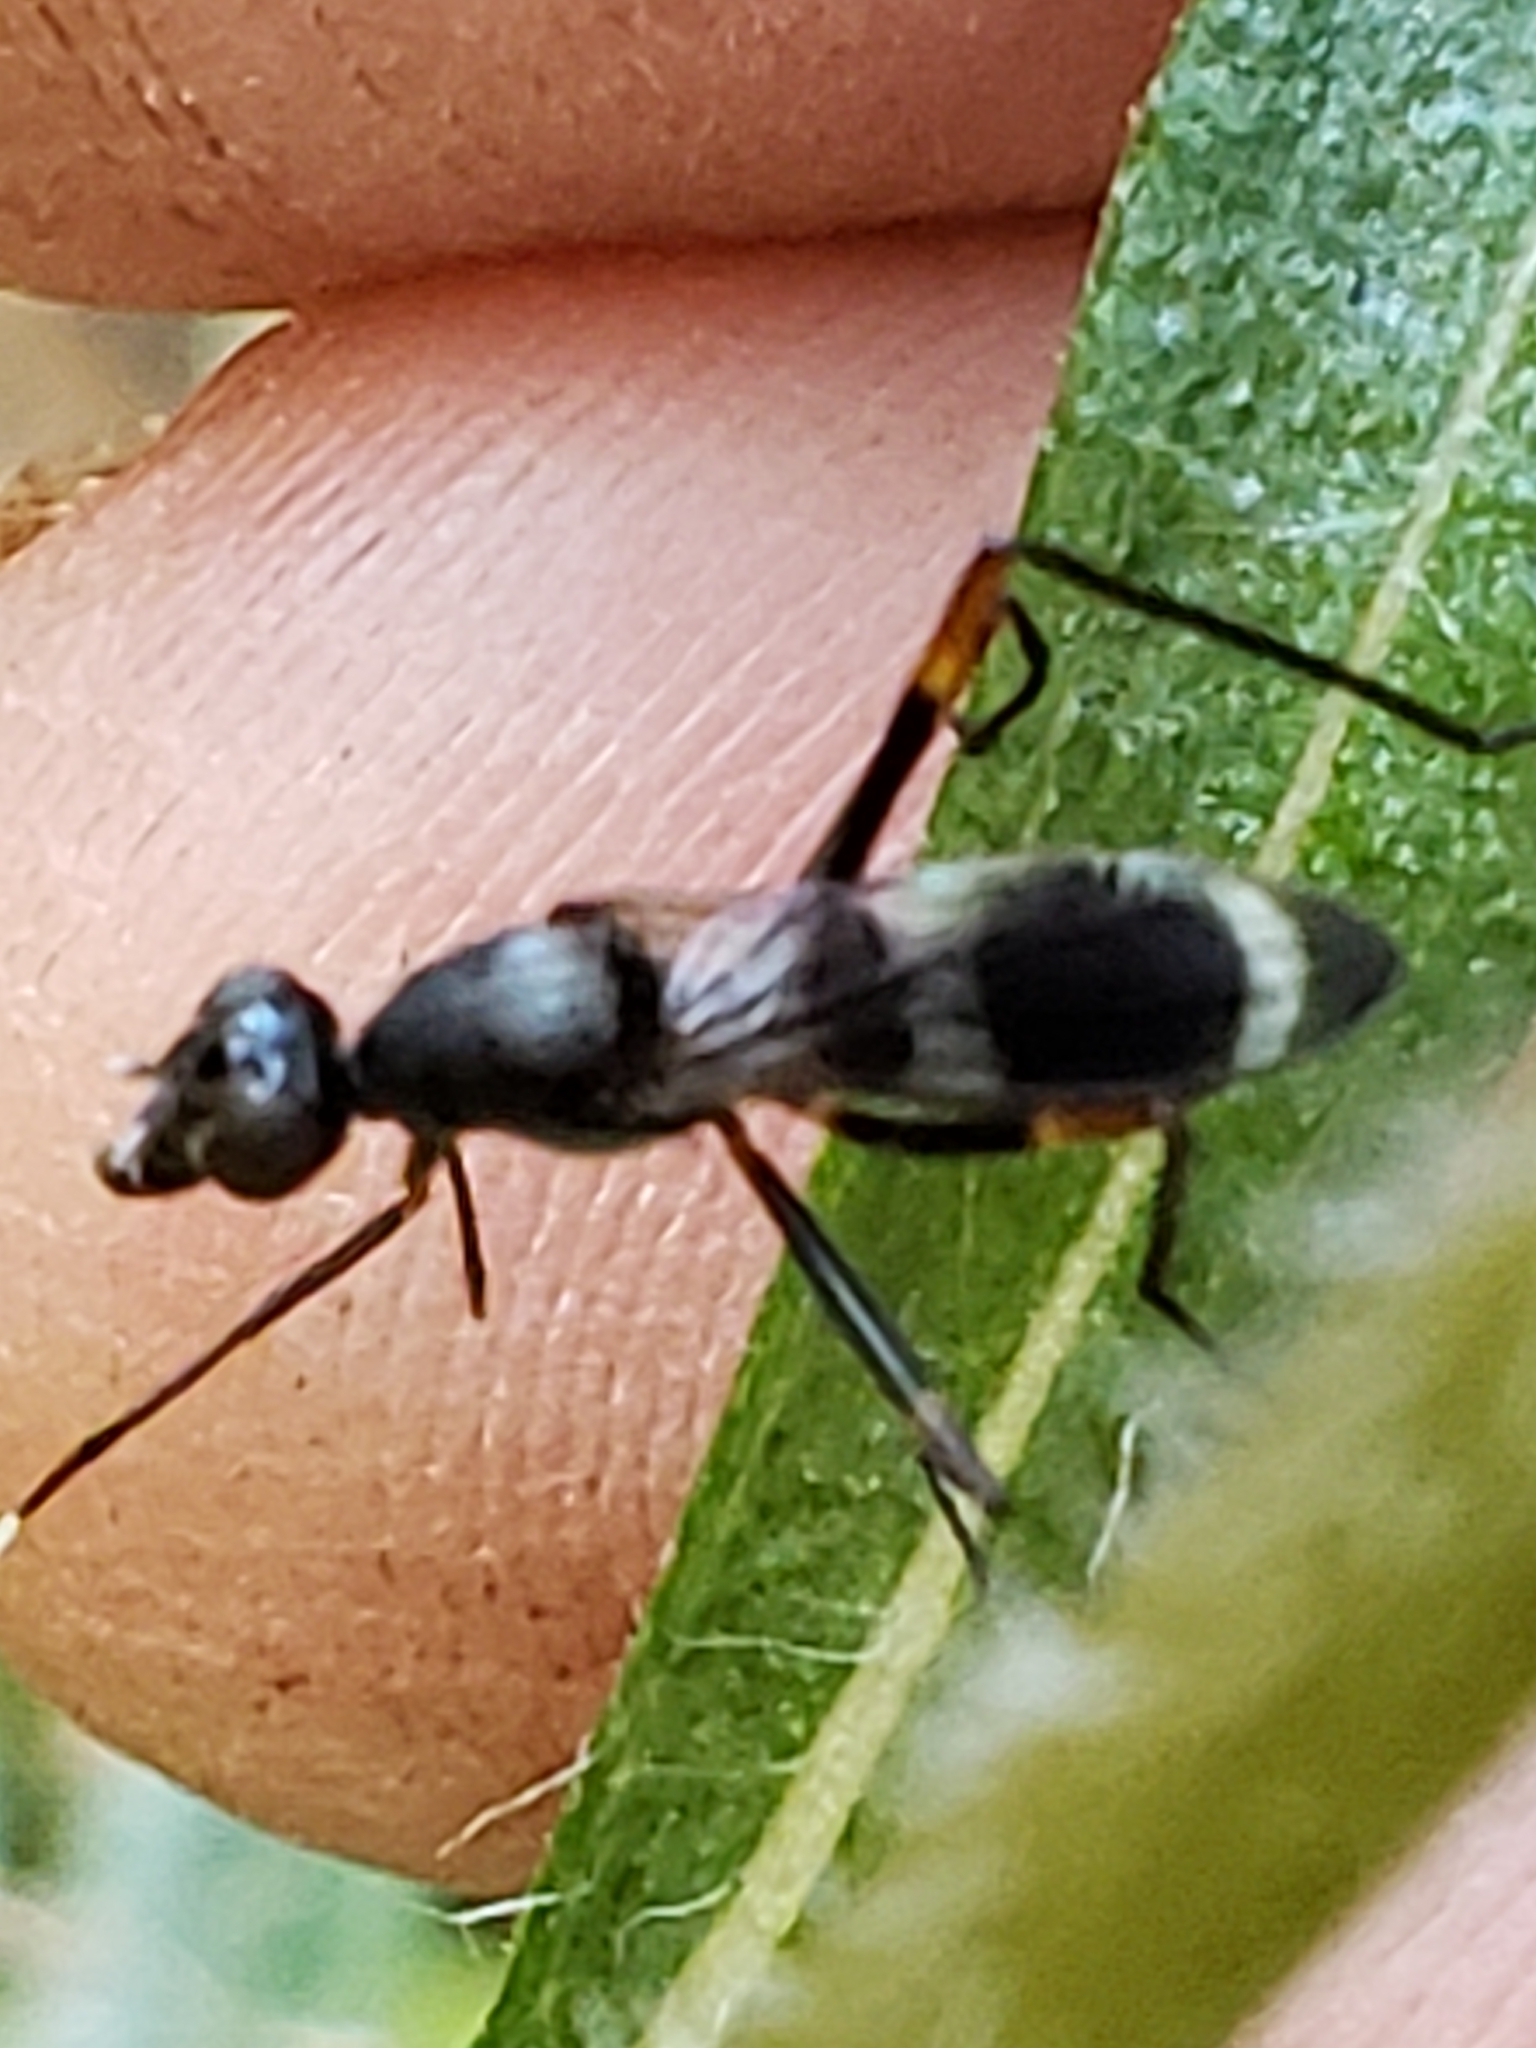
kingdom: Animalia
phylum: Arthropoda
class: Insecta
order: Diptera
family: Micropezidae
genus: Taeniaptera
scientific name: Taeniaptera trivittata
